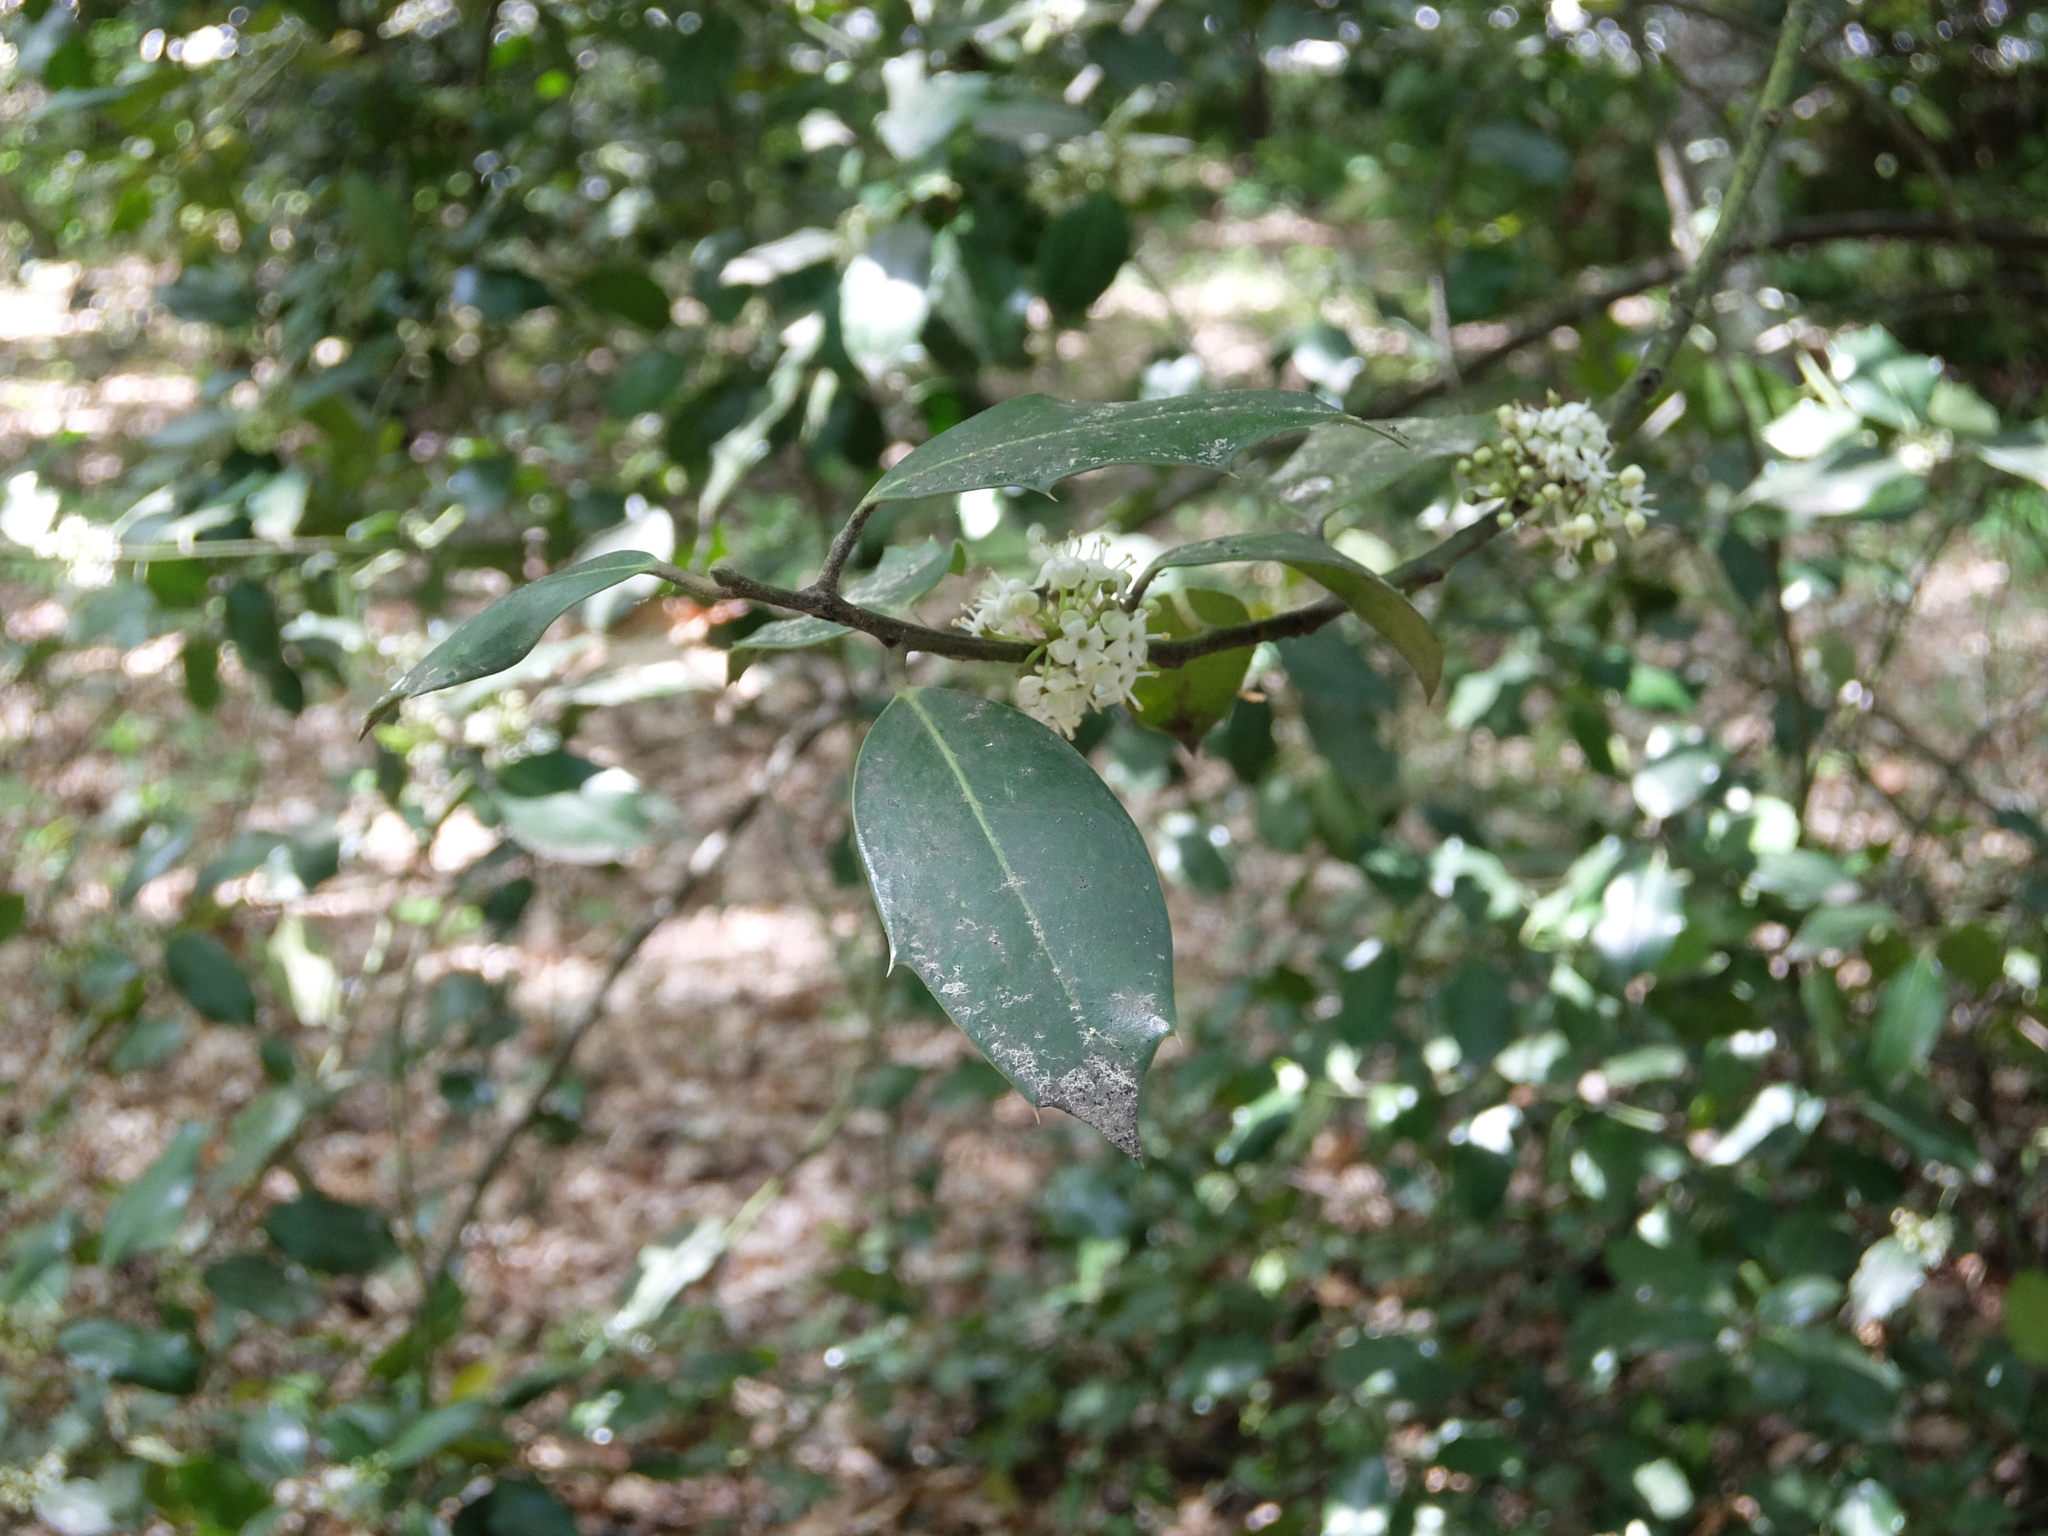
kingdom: Plantae
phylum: Tracheophyta
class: Magnoliopsida
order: Aquifoliales
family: Aquifoliaceae
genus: Ilex
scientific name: Ilex aquifolium
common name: English holly
